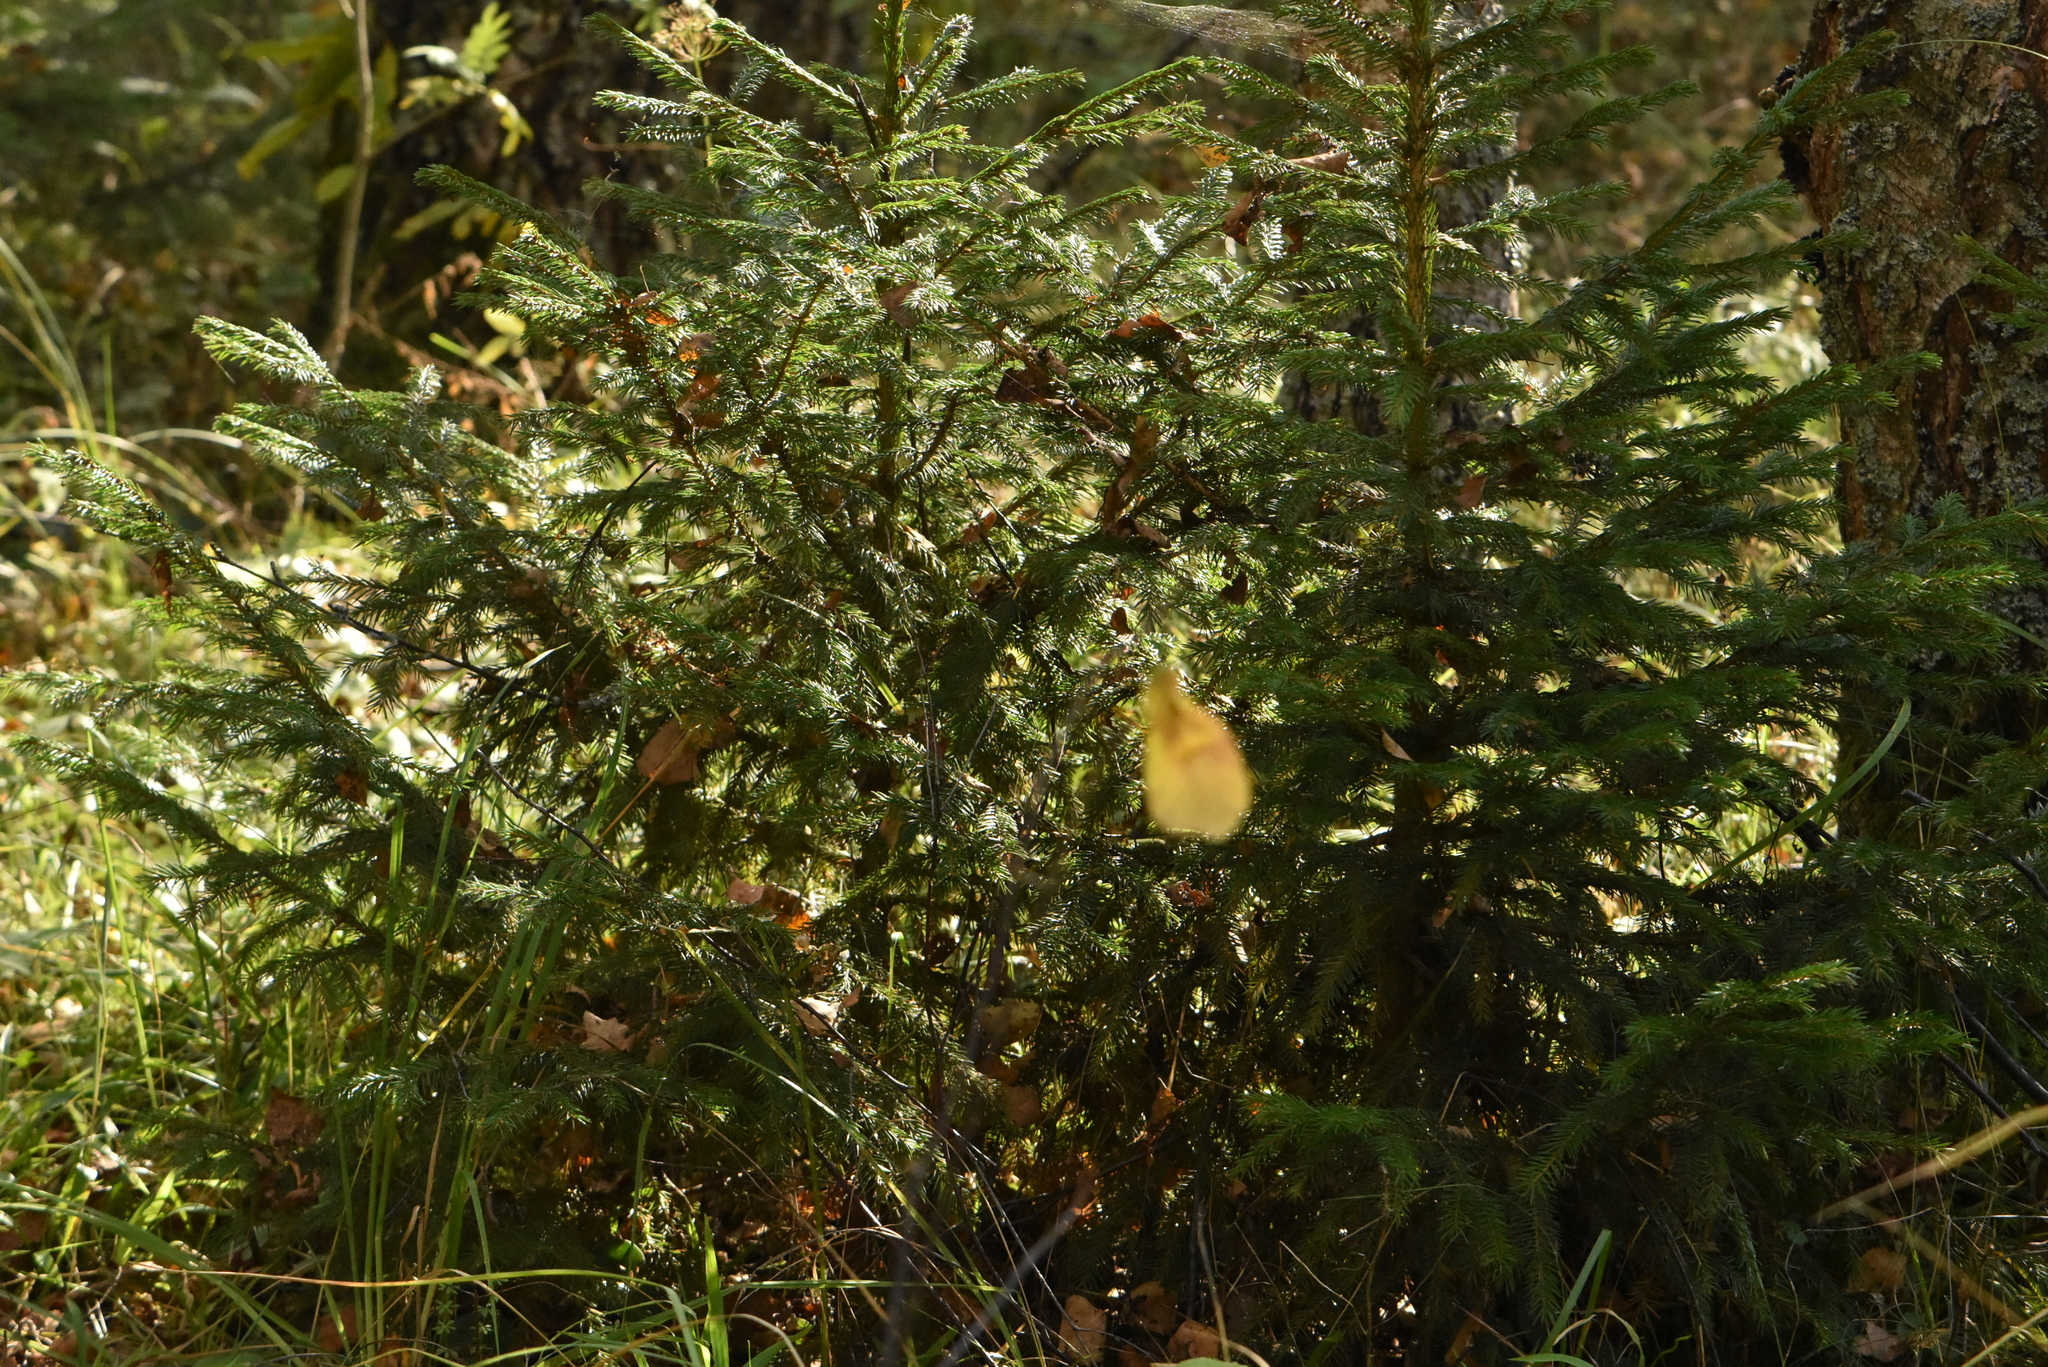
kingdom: Plantae
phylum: Tracheophyta
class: Pinopsida
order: Pinales
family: Pinaceae
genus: Picea
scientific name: Picea abies
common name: Norway spruce
